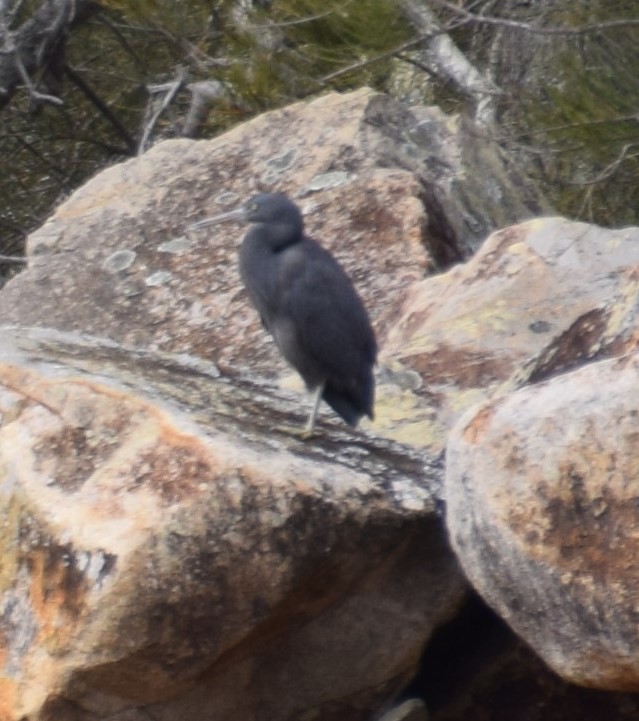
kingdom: Animalia
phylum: Chordata
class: Aves
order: Pelecaniformes
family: Ardeidae
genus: Egretta
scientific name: Egretta sacra
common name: Pacific reef heron
